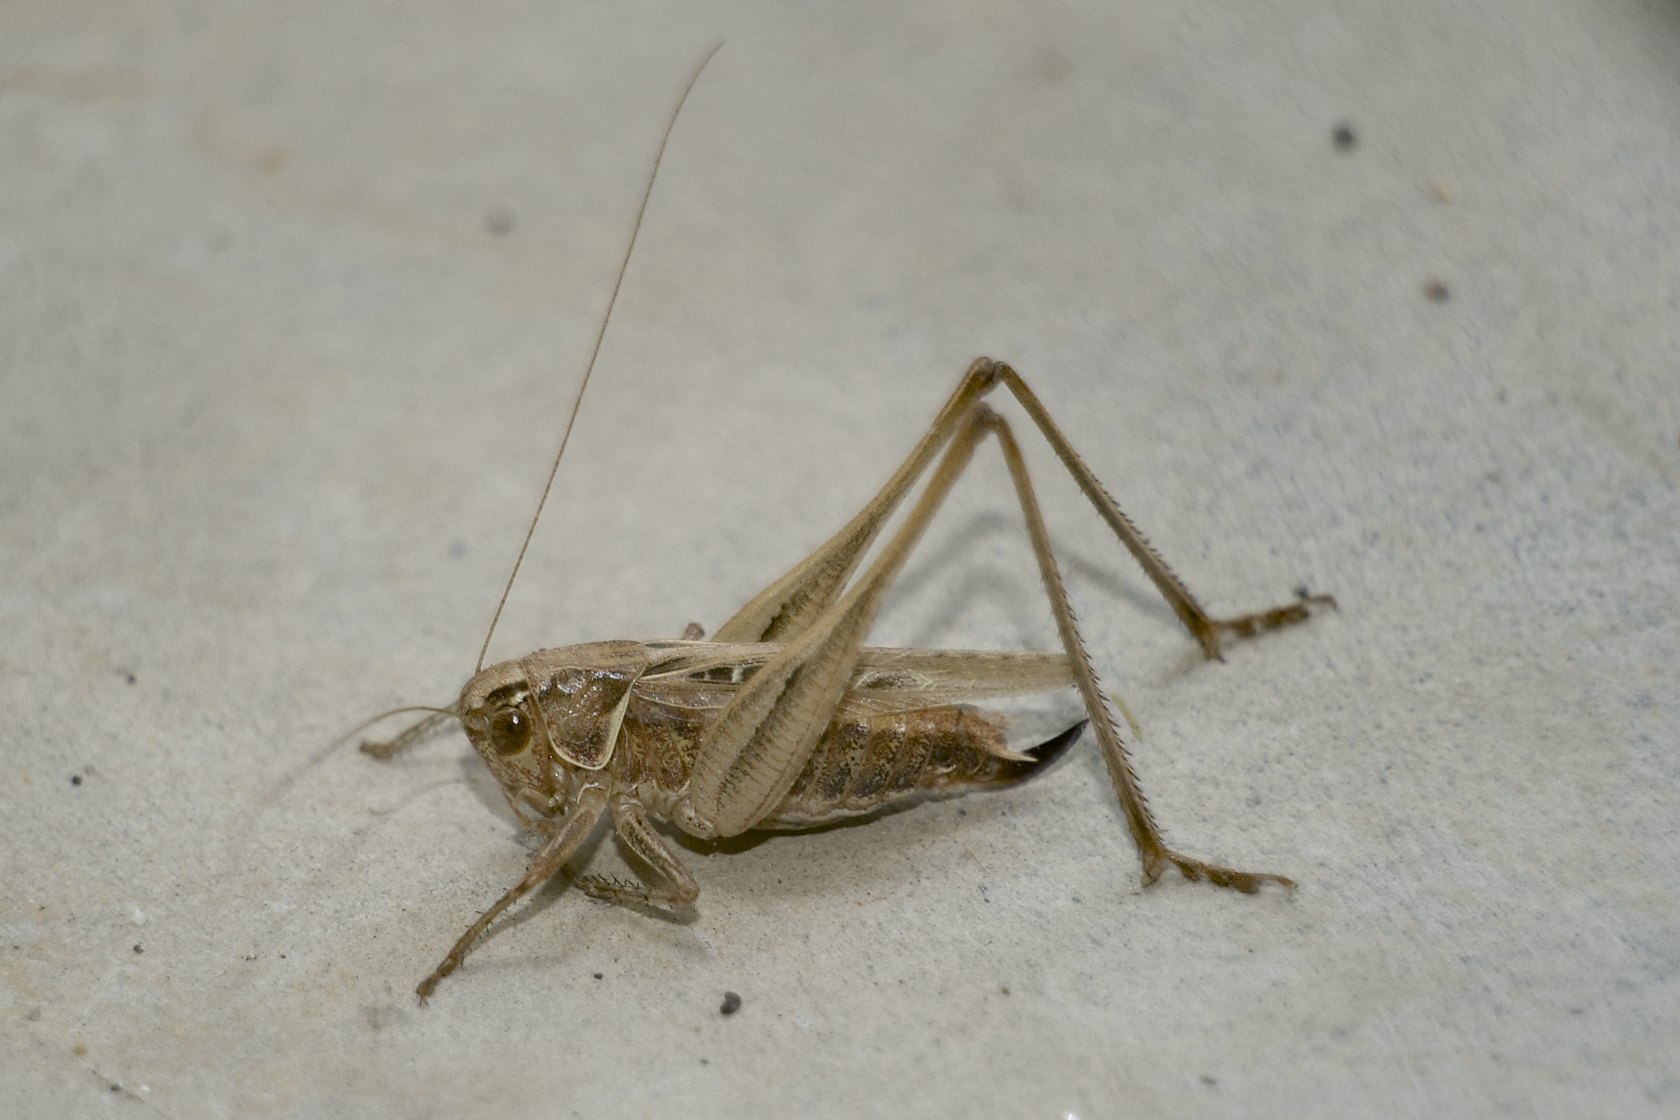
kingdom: Animalia
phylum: Arthropoda
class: Insecta
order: Orthoptera
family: Tettigoniidae
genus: Tessellana
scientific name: Tessellana tessellata
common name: Grasshopper
